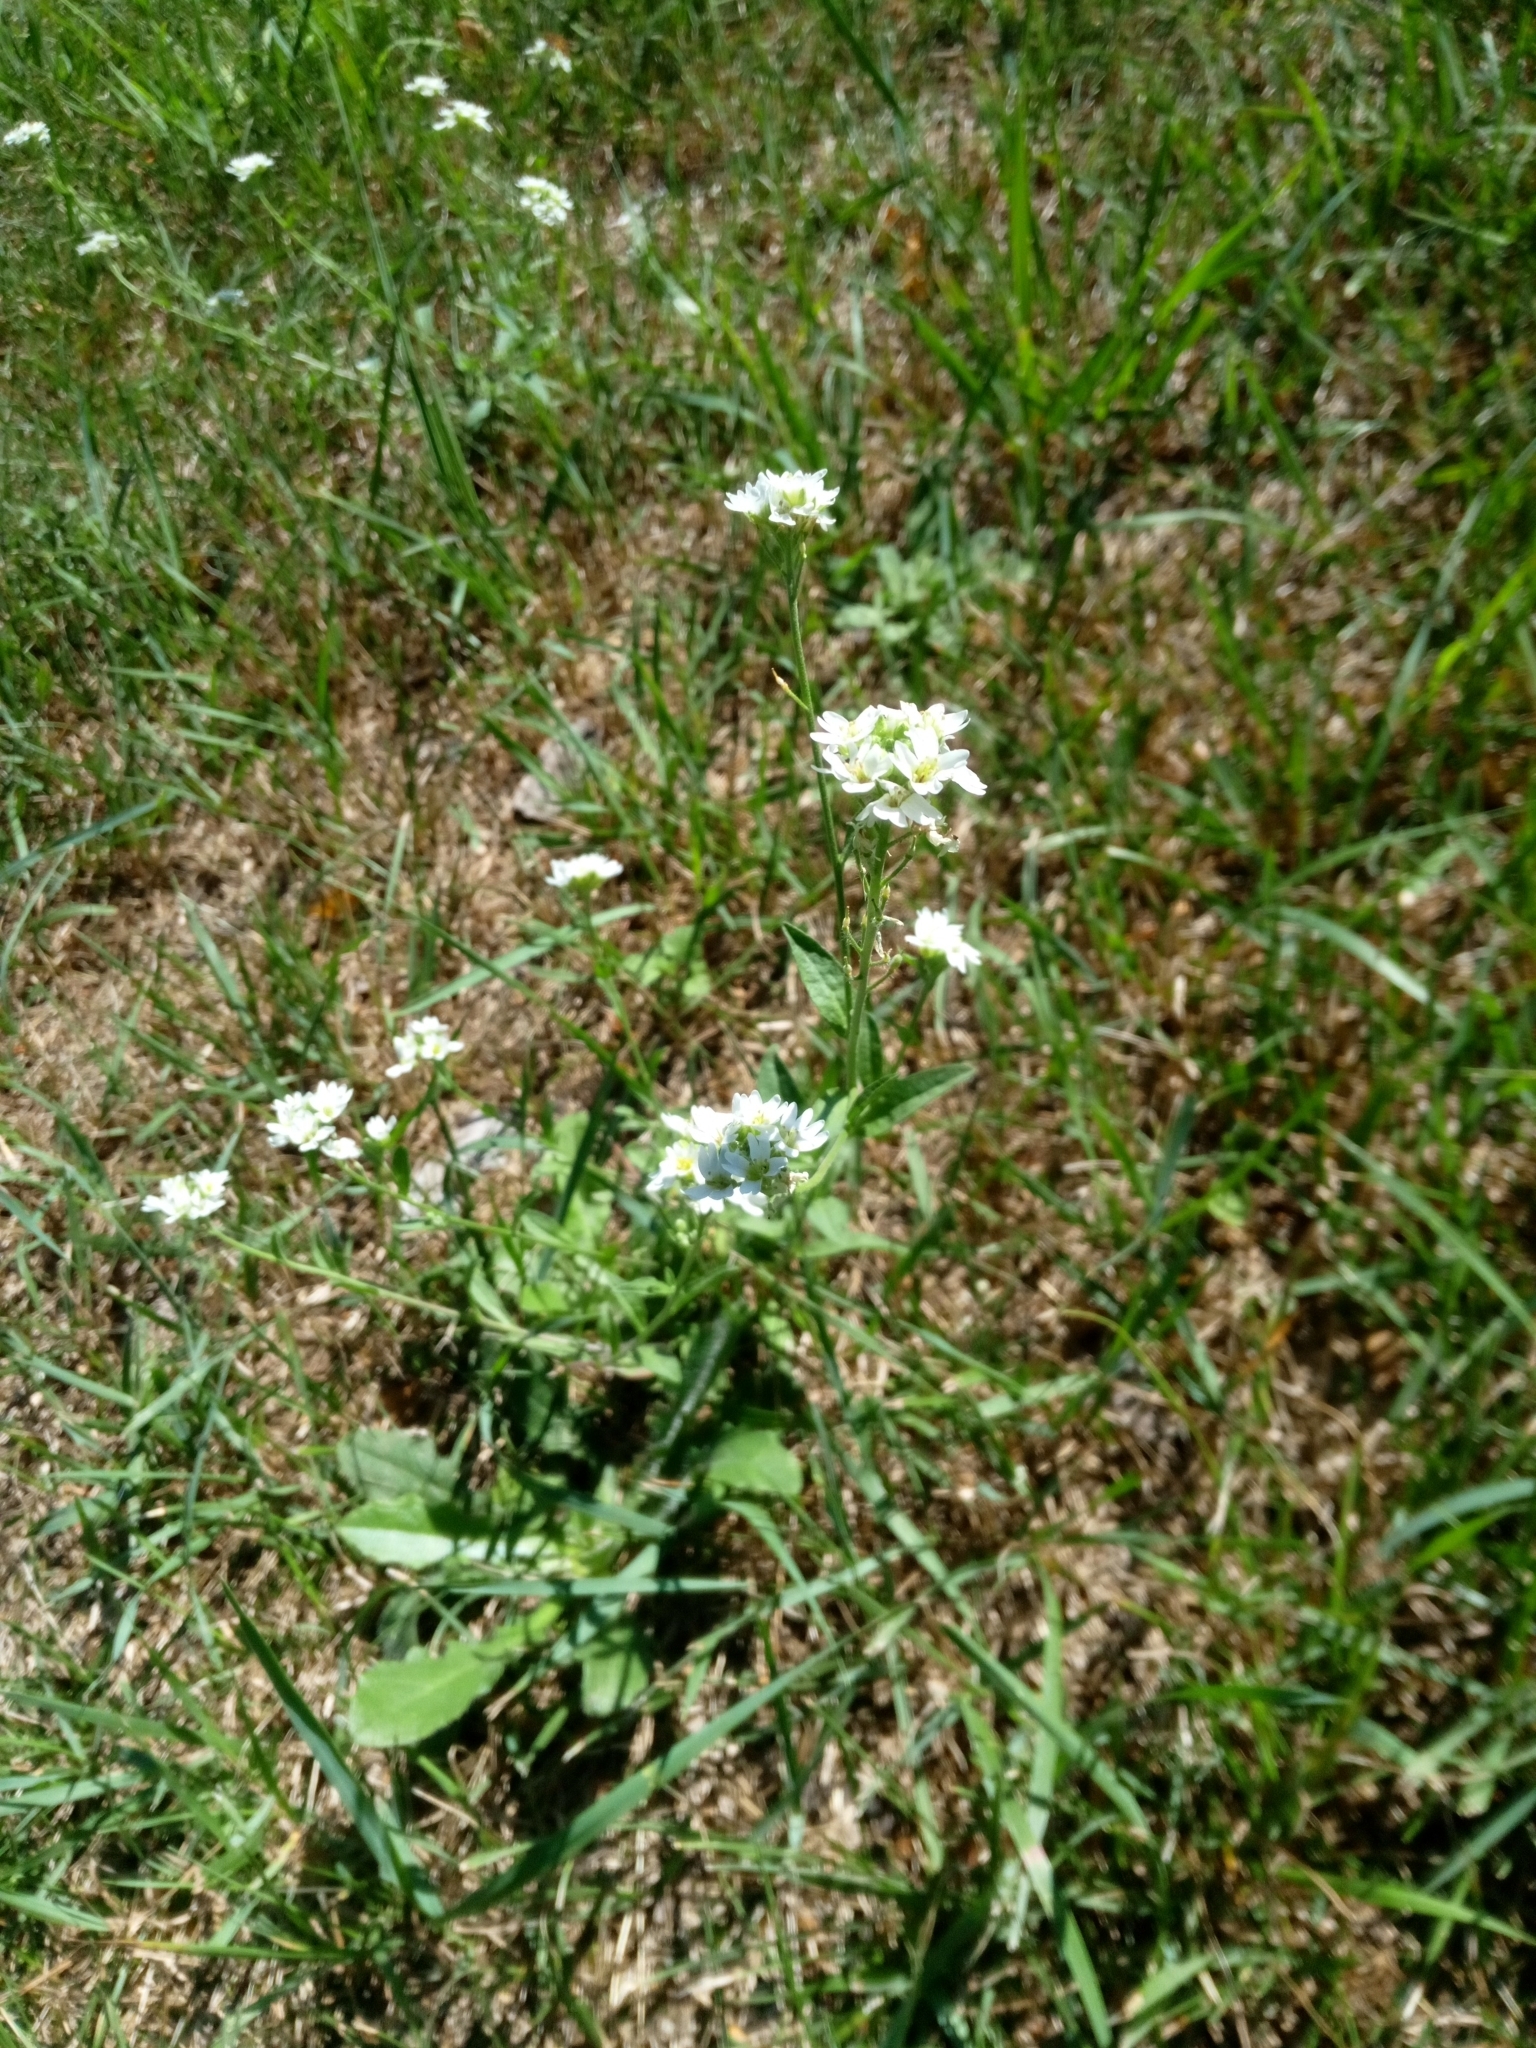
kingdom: Plantae
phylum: Tracheophyta
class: Magnoliopsida
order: Brassicales
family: Brassicaceae
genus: Berteroa
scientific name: Berteroa incana
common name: Hoary alison
